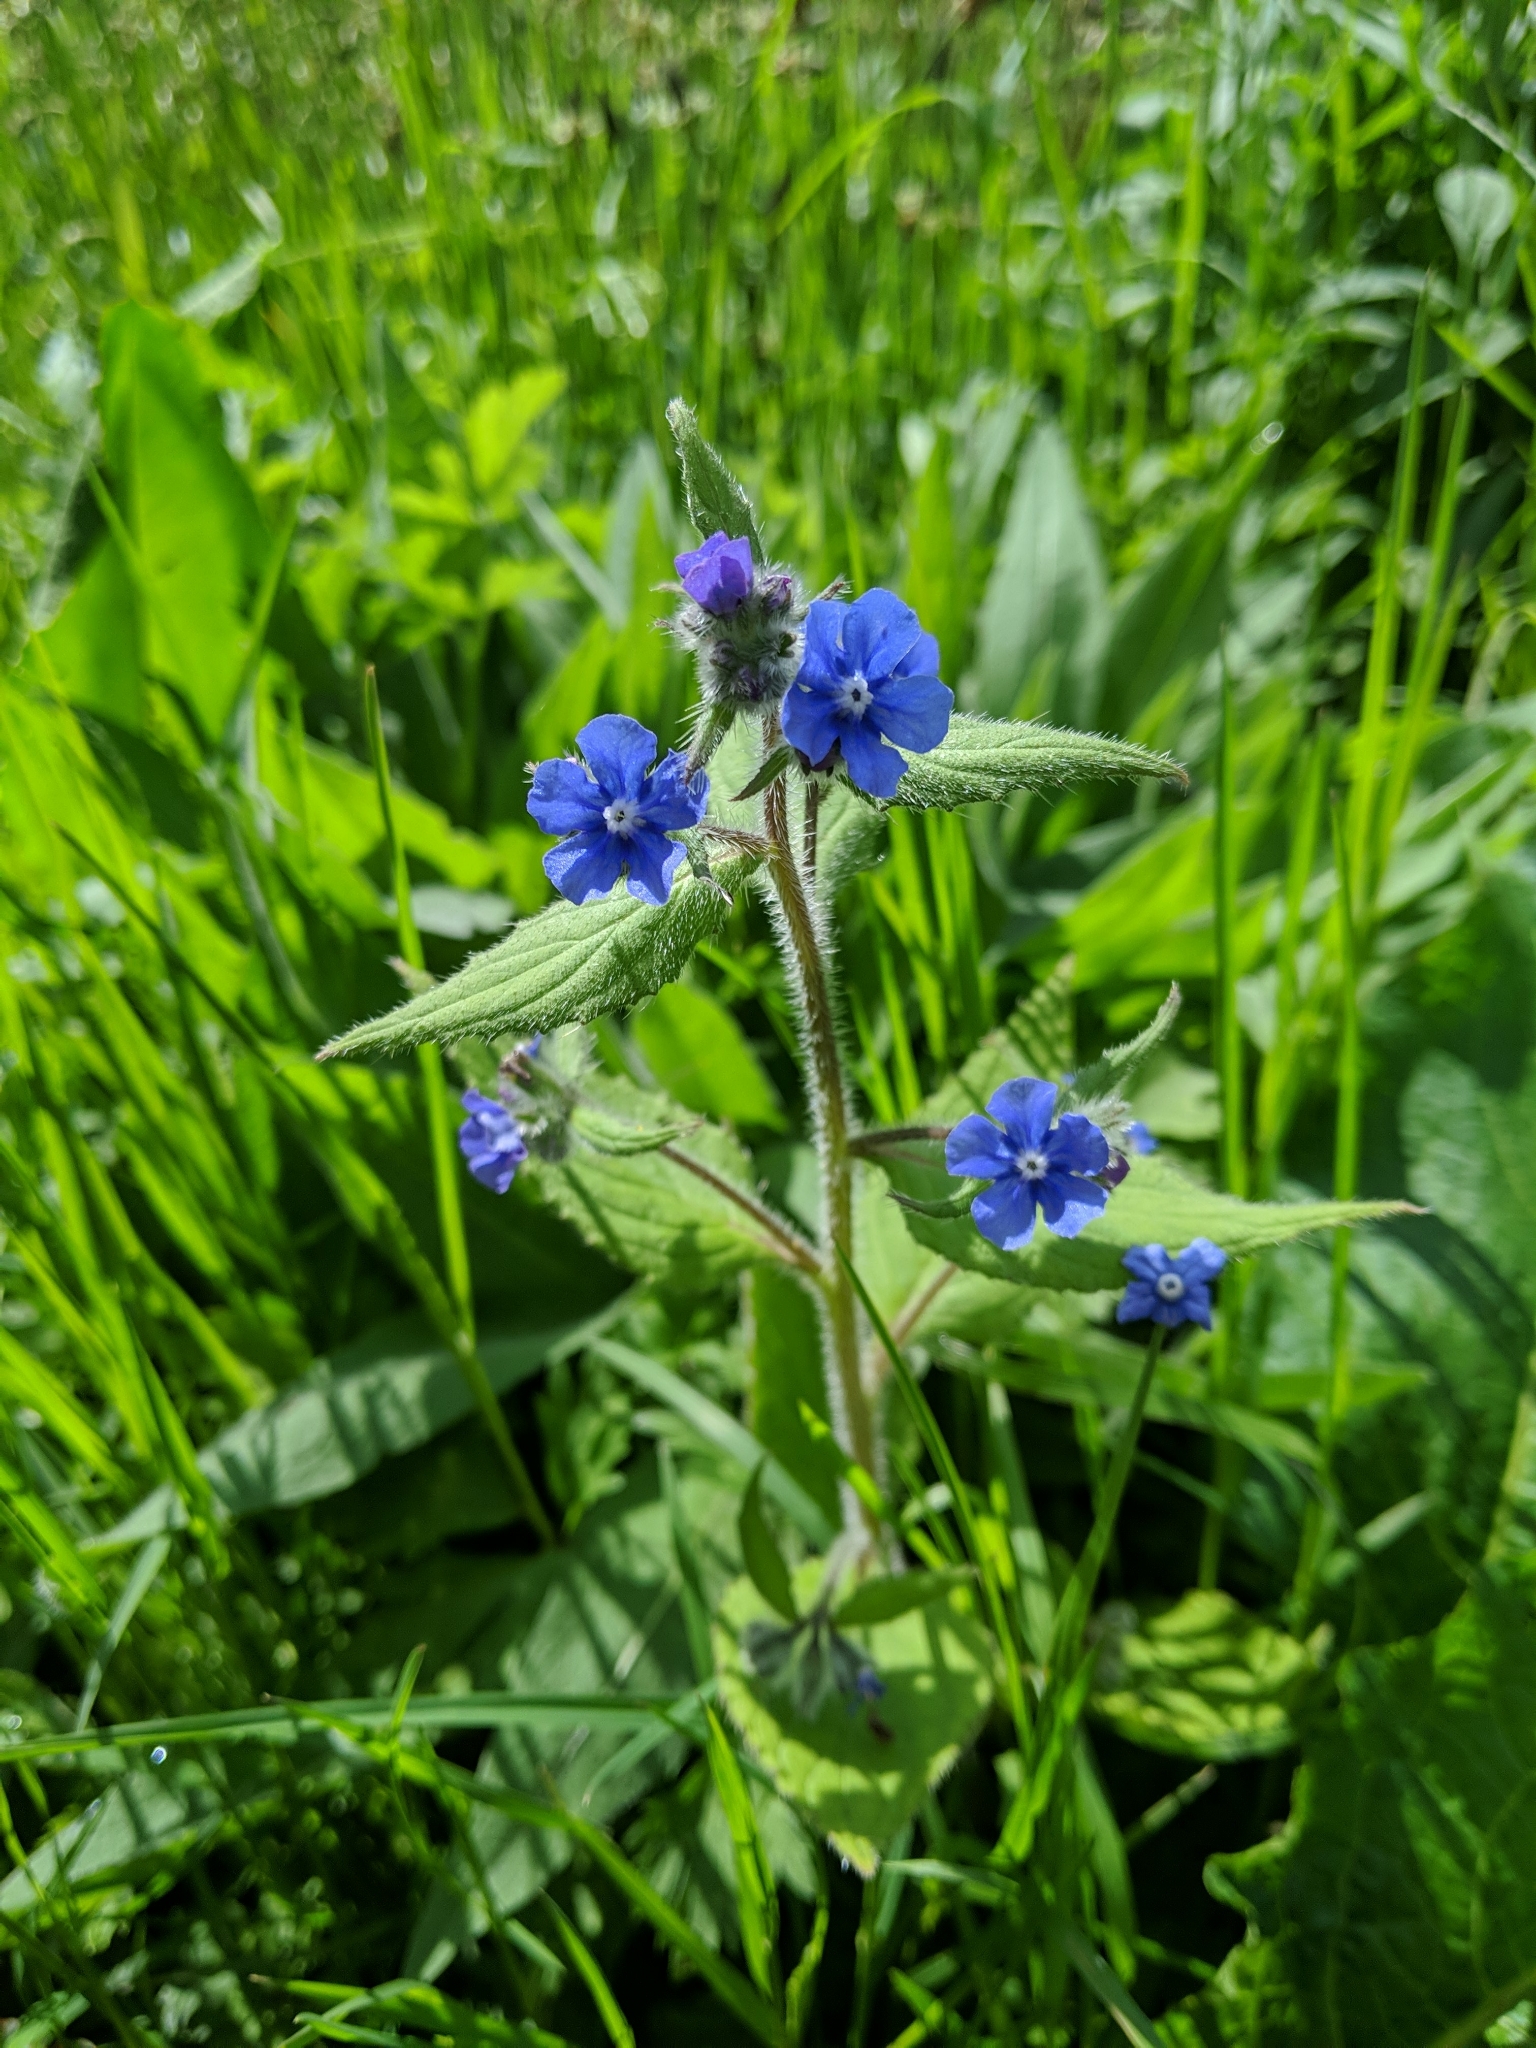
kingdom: Plantae
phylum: Tracheophyta
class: Magnoliopsida
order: Boraginales
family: Boraginaceae
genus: Pentaglottis
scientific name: Pentaglottis sempervirens
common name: Green alkanet
